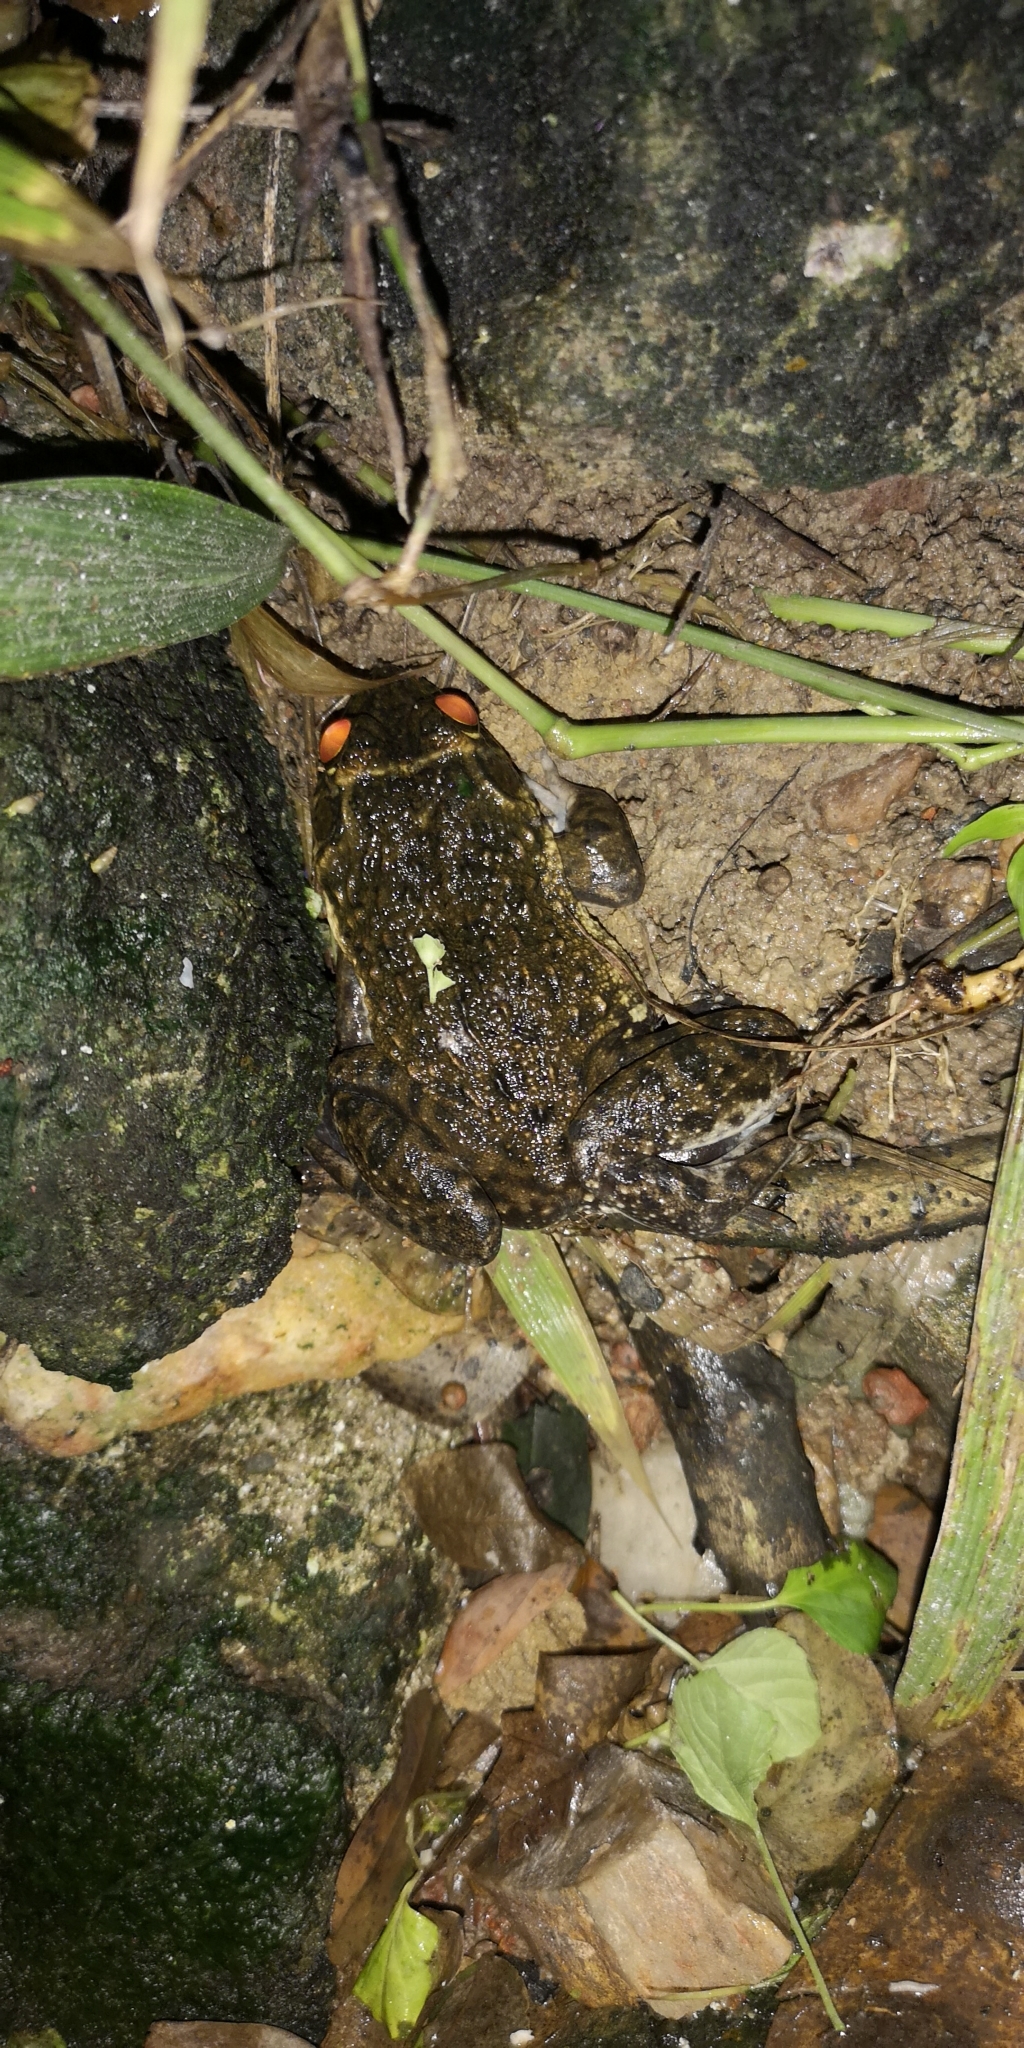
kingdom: Animalia
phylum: Chordata
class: Amphibia
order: Anura
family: Dicroglossidae
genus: Hoplobatrachus
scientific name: Hoplobatrachus occipitalis
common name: Eastern groove-crowned bullfrog
